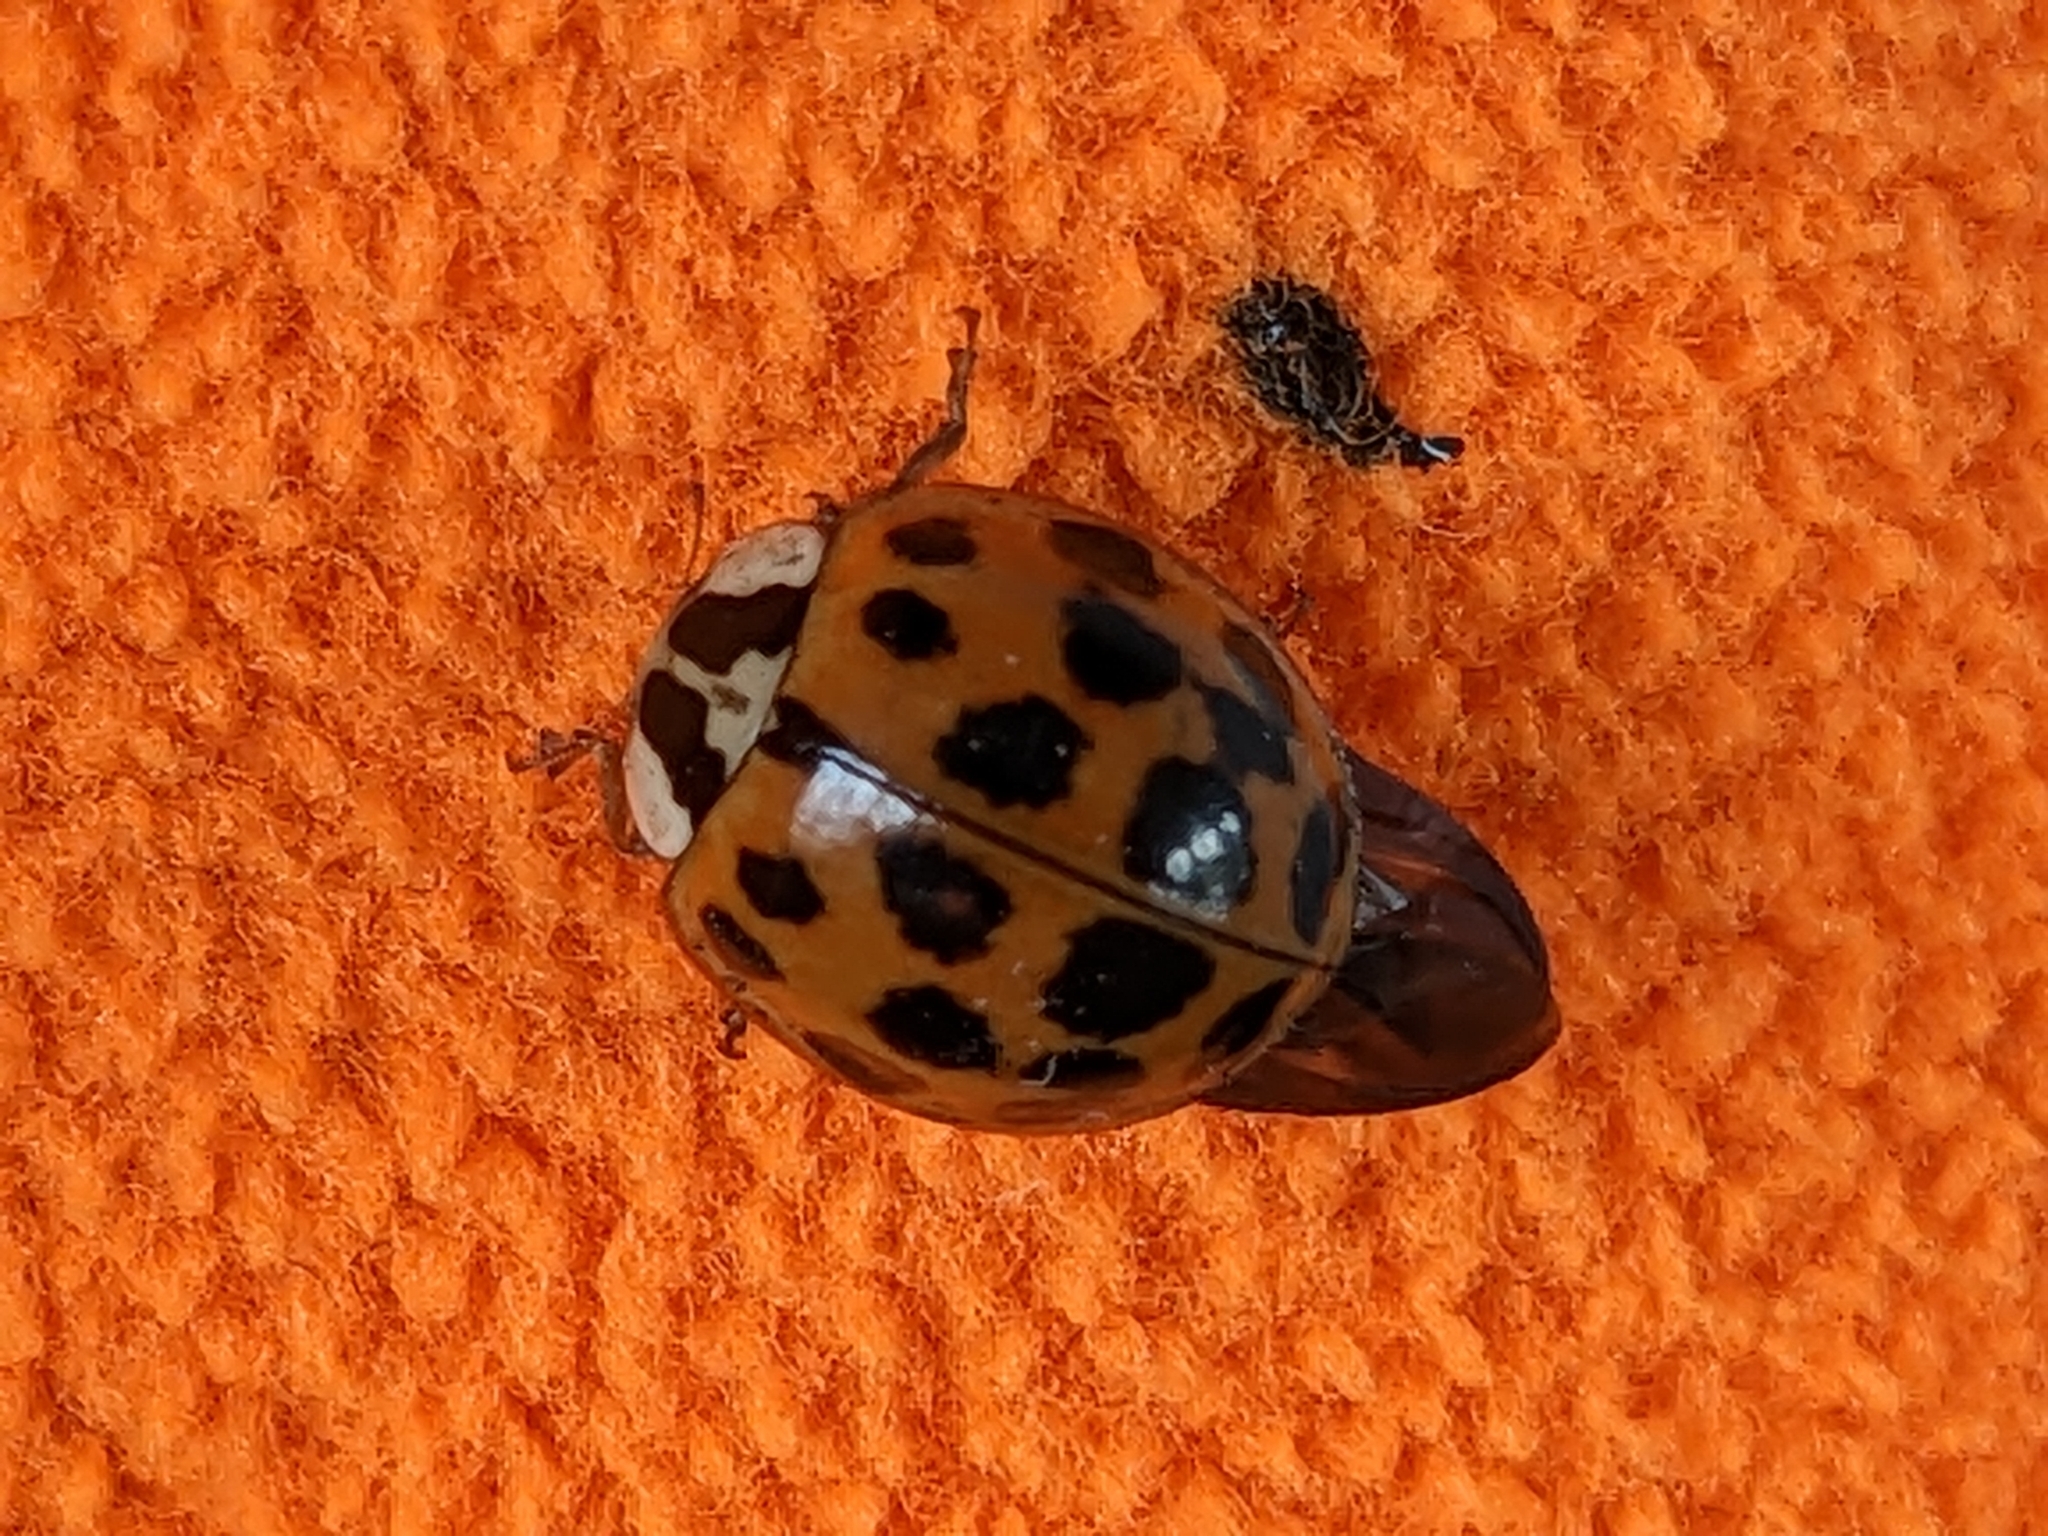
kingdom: Animalia
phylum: Arthropoda
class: Insecta
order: Coleoptera
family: Coccinellidae
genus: Harmonia
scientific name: Harmonia axyridis
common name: Harlequin ladybird
